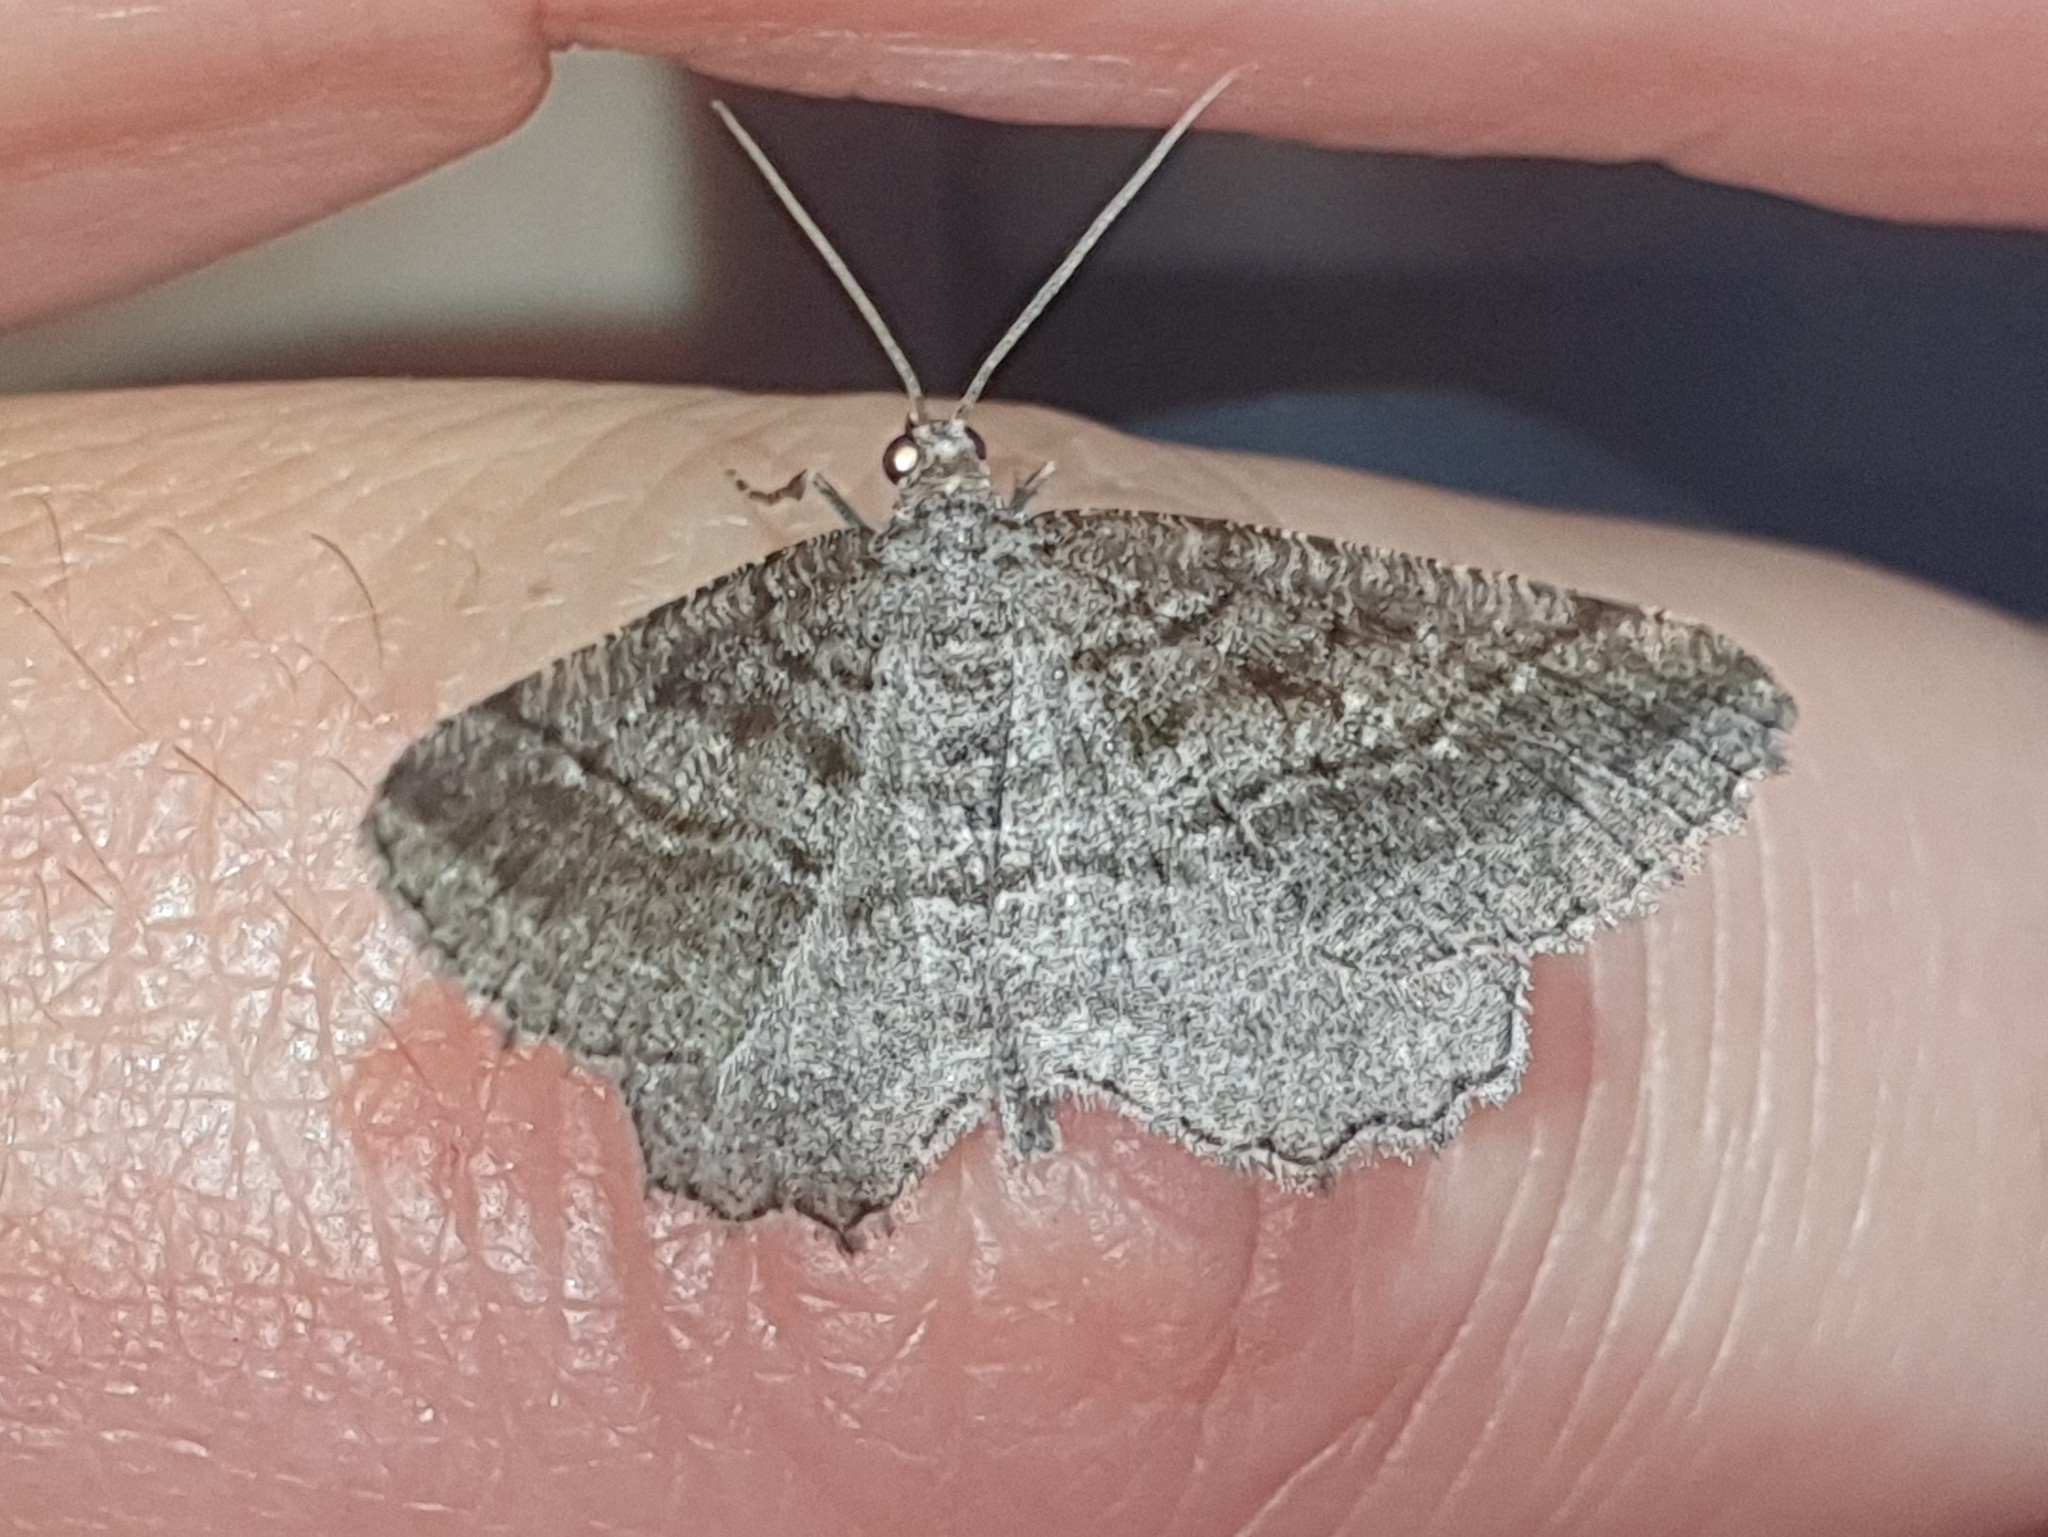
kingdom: Animalia
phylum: Arthropoda
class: Insecta
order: Lepidoptera
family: Geometridae
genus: Rhoptria
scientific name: Rhoptria asperaria
